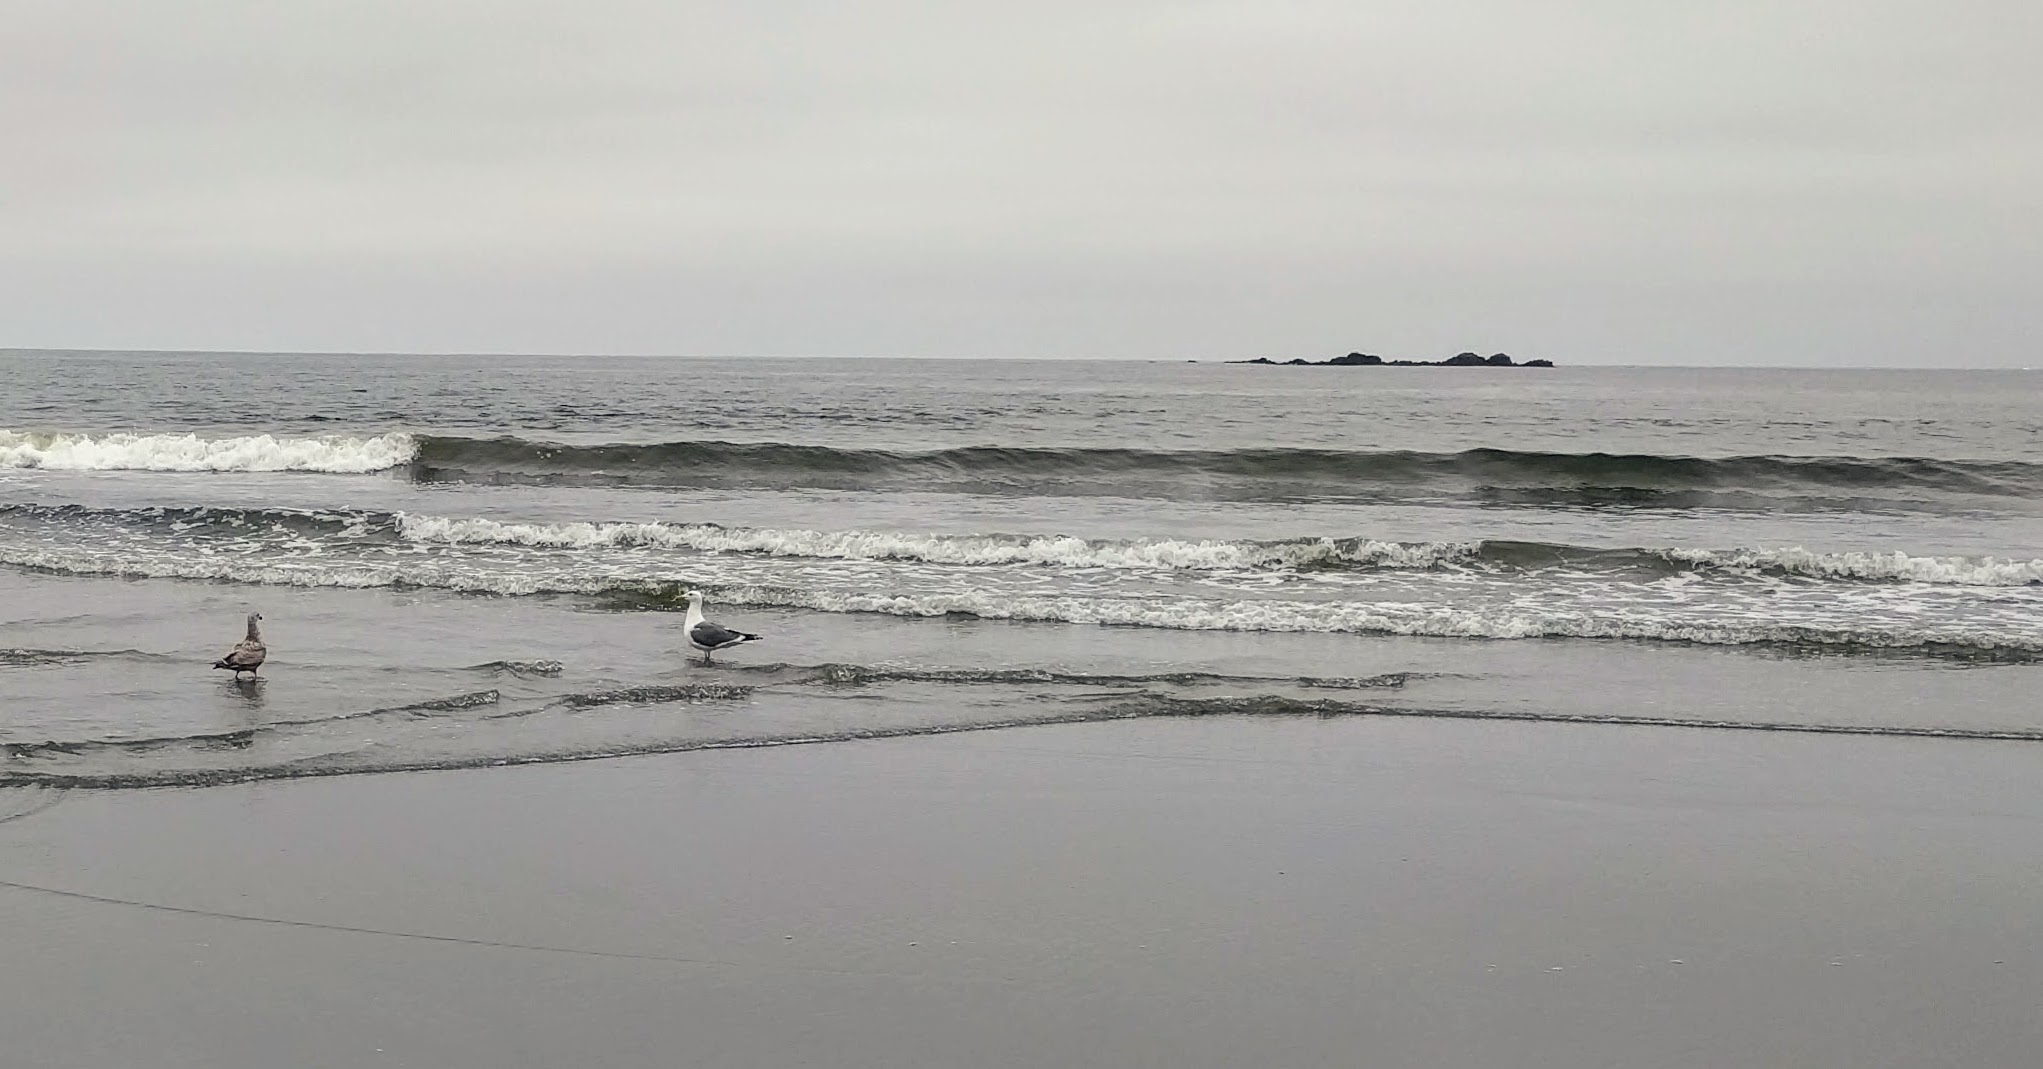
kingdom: Animalia
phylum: Chordata
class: Aves
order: Charadriiformes
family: Laridae
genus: Larus
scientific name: Larus occidentalis
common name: Western gull
